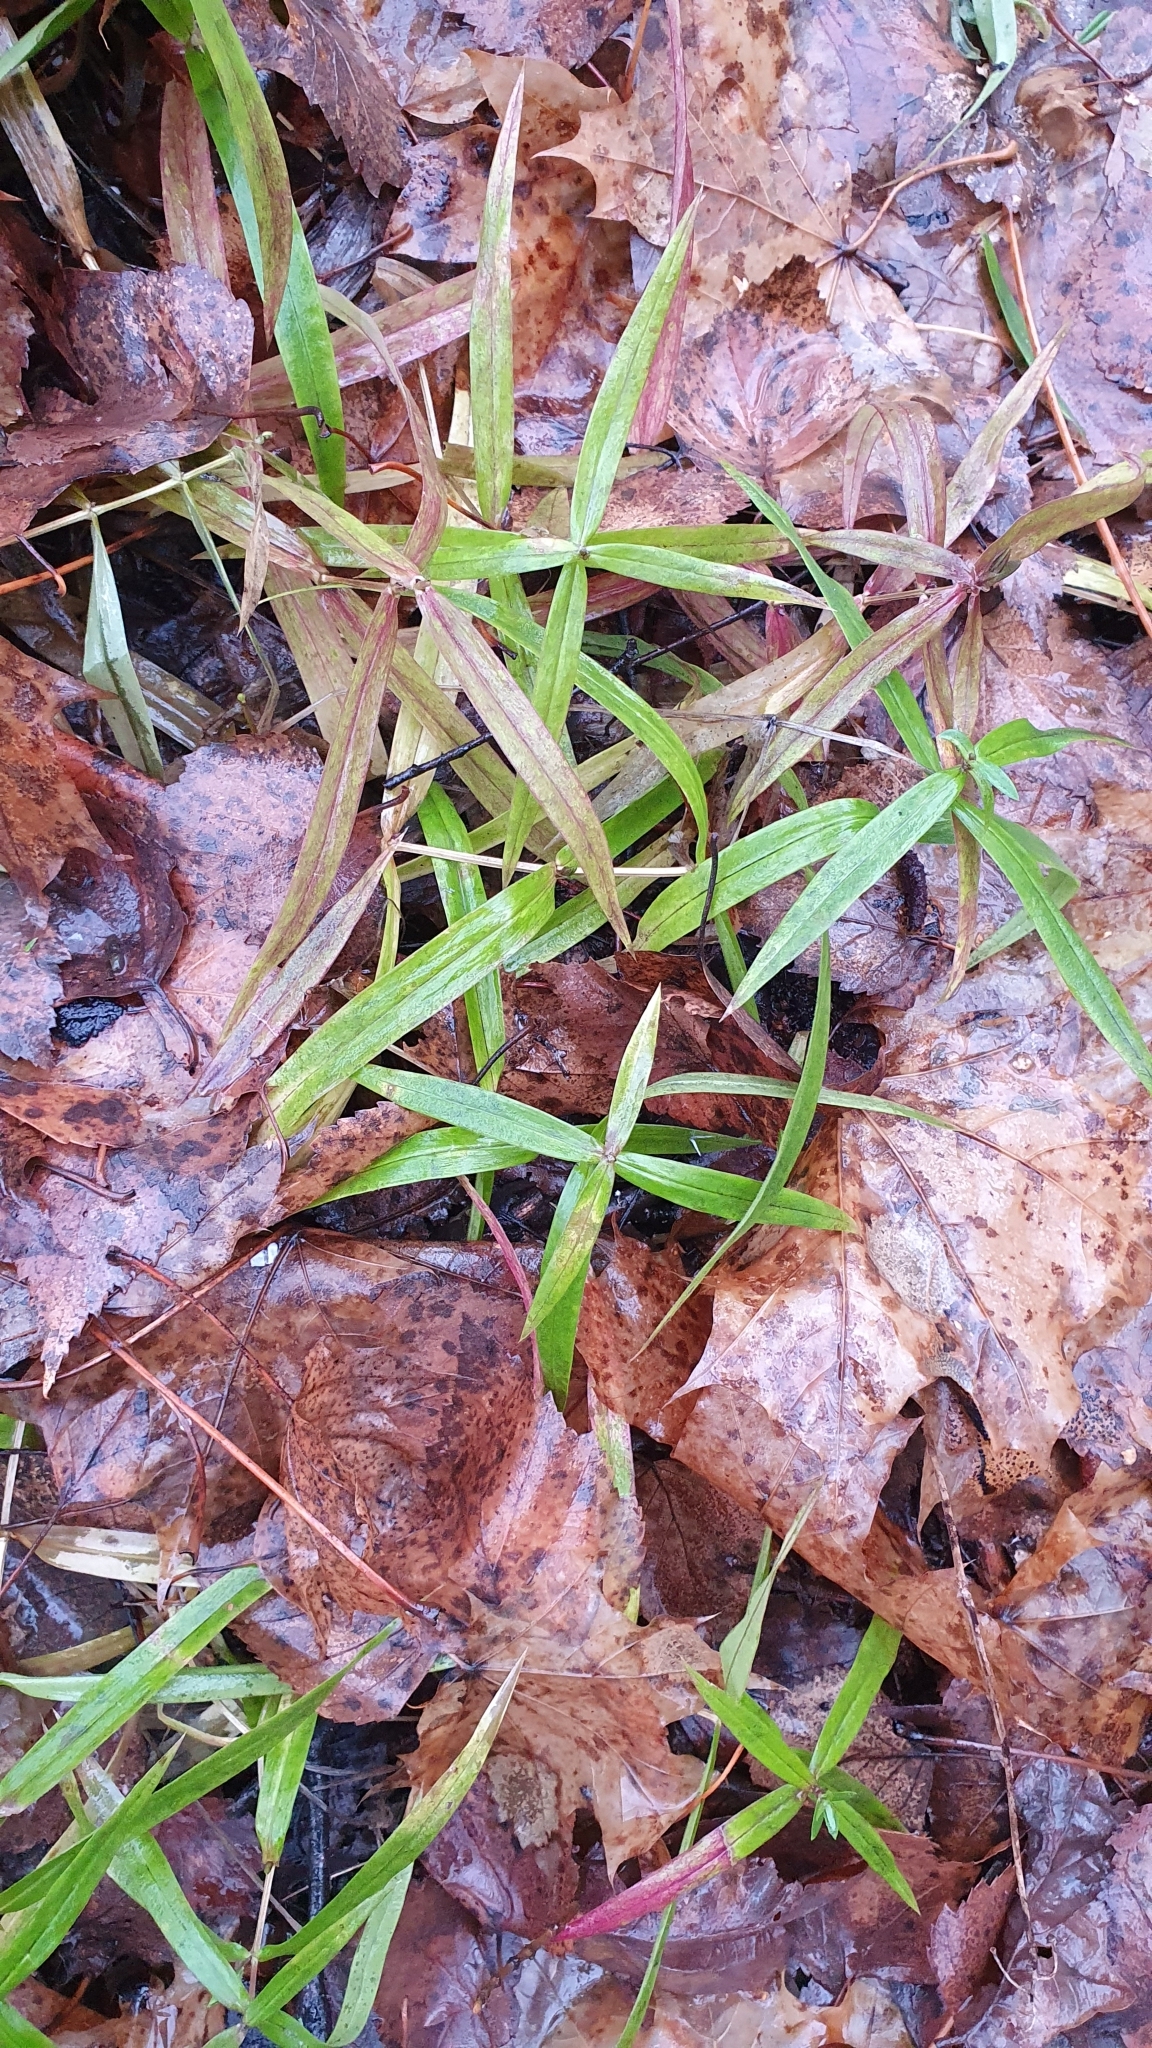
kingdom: Plantae
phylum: Tracheophyta
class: Magnoliopsida
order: Caryophyllales
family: Caryophyllaceae
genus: Rabelera
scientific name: Rabelera holostea
